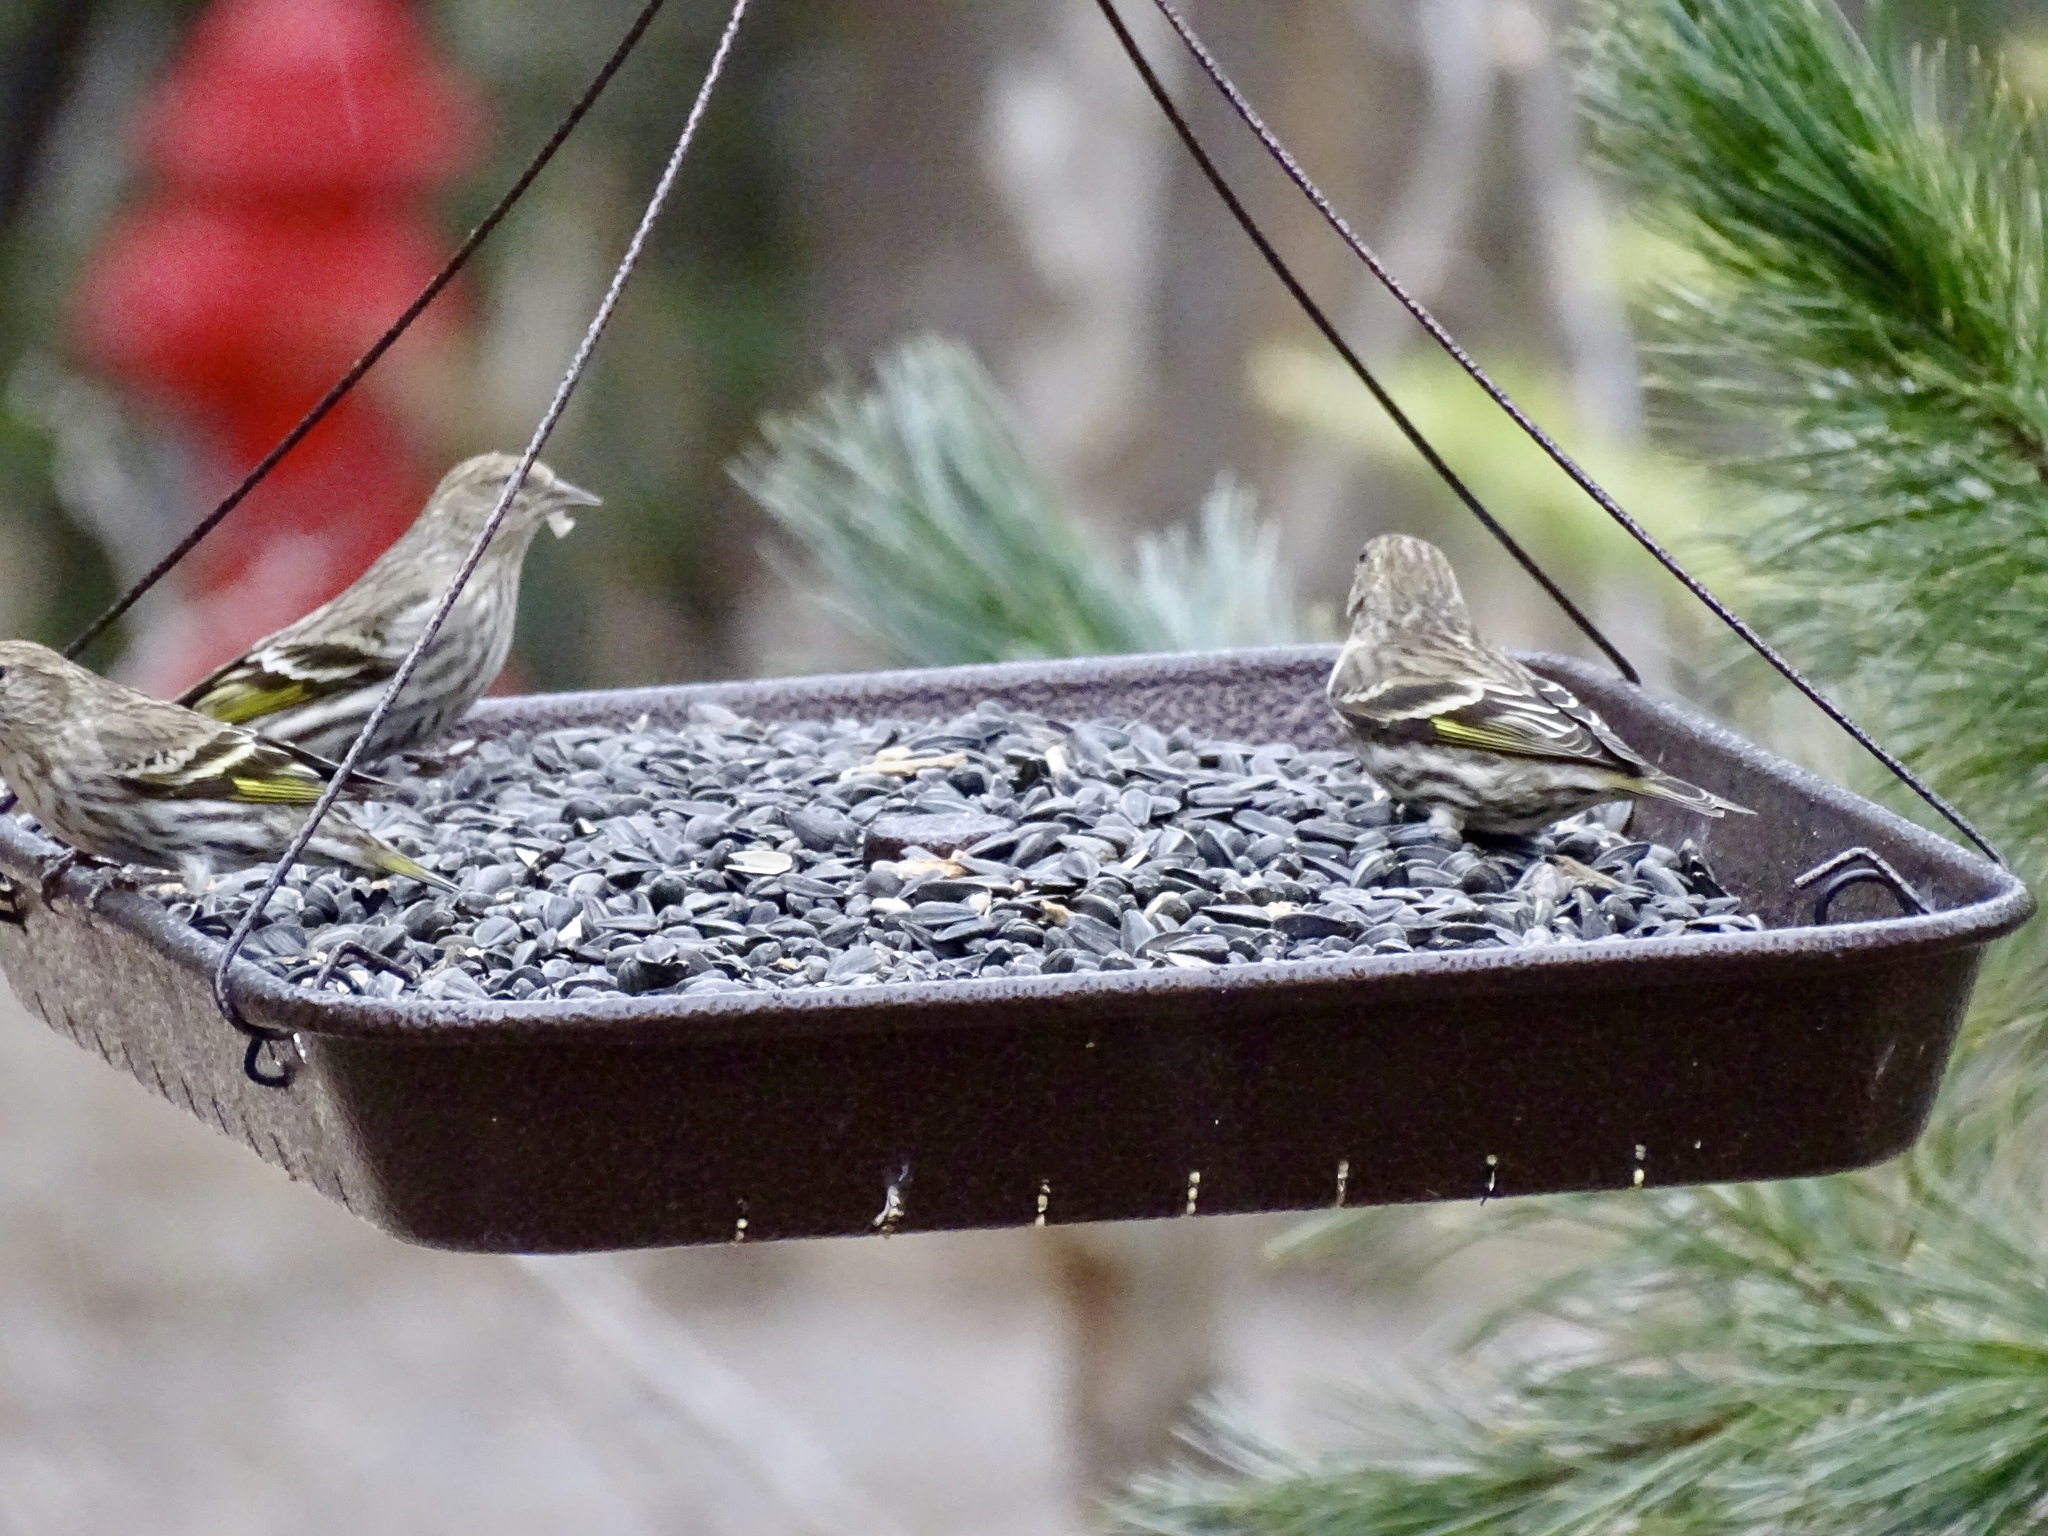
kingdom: Animalia
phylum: Chordata
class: Aves
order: Passeriformes
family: Fringillidae
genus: Spinus
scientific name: Spinus pinus
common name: Pine siskin
